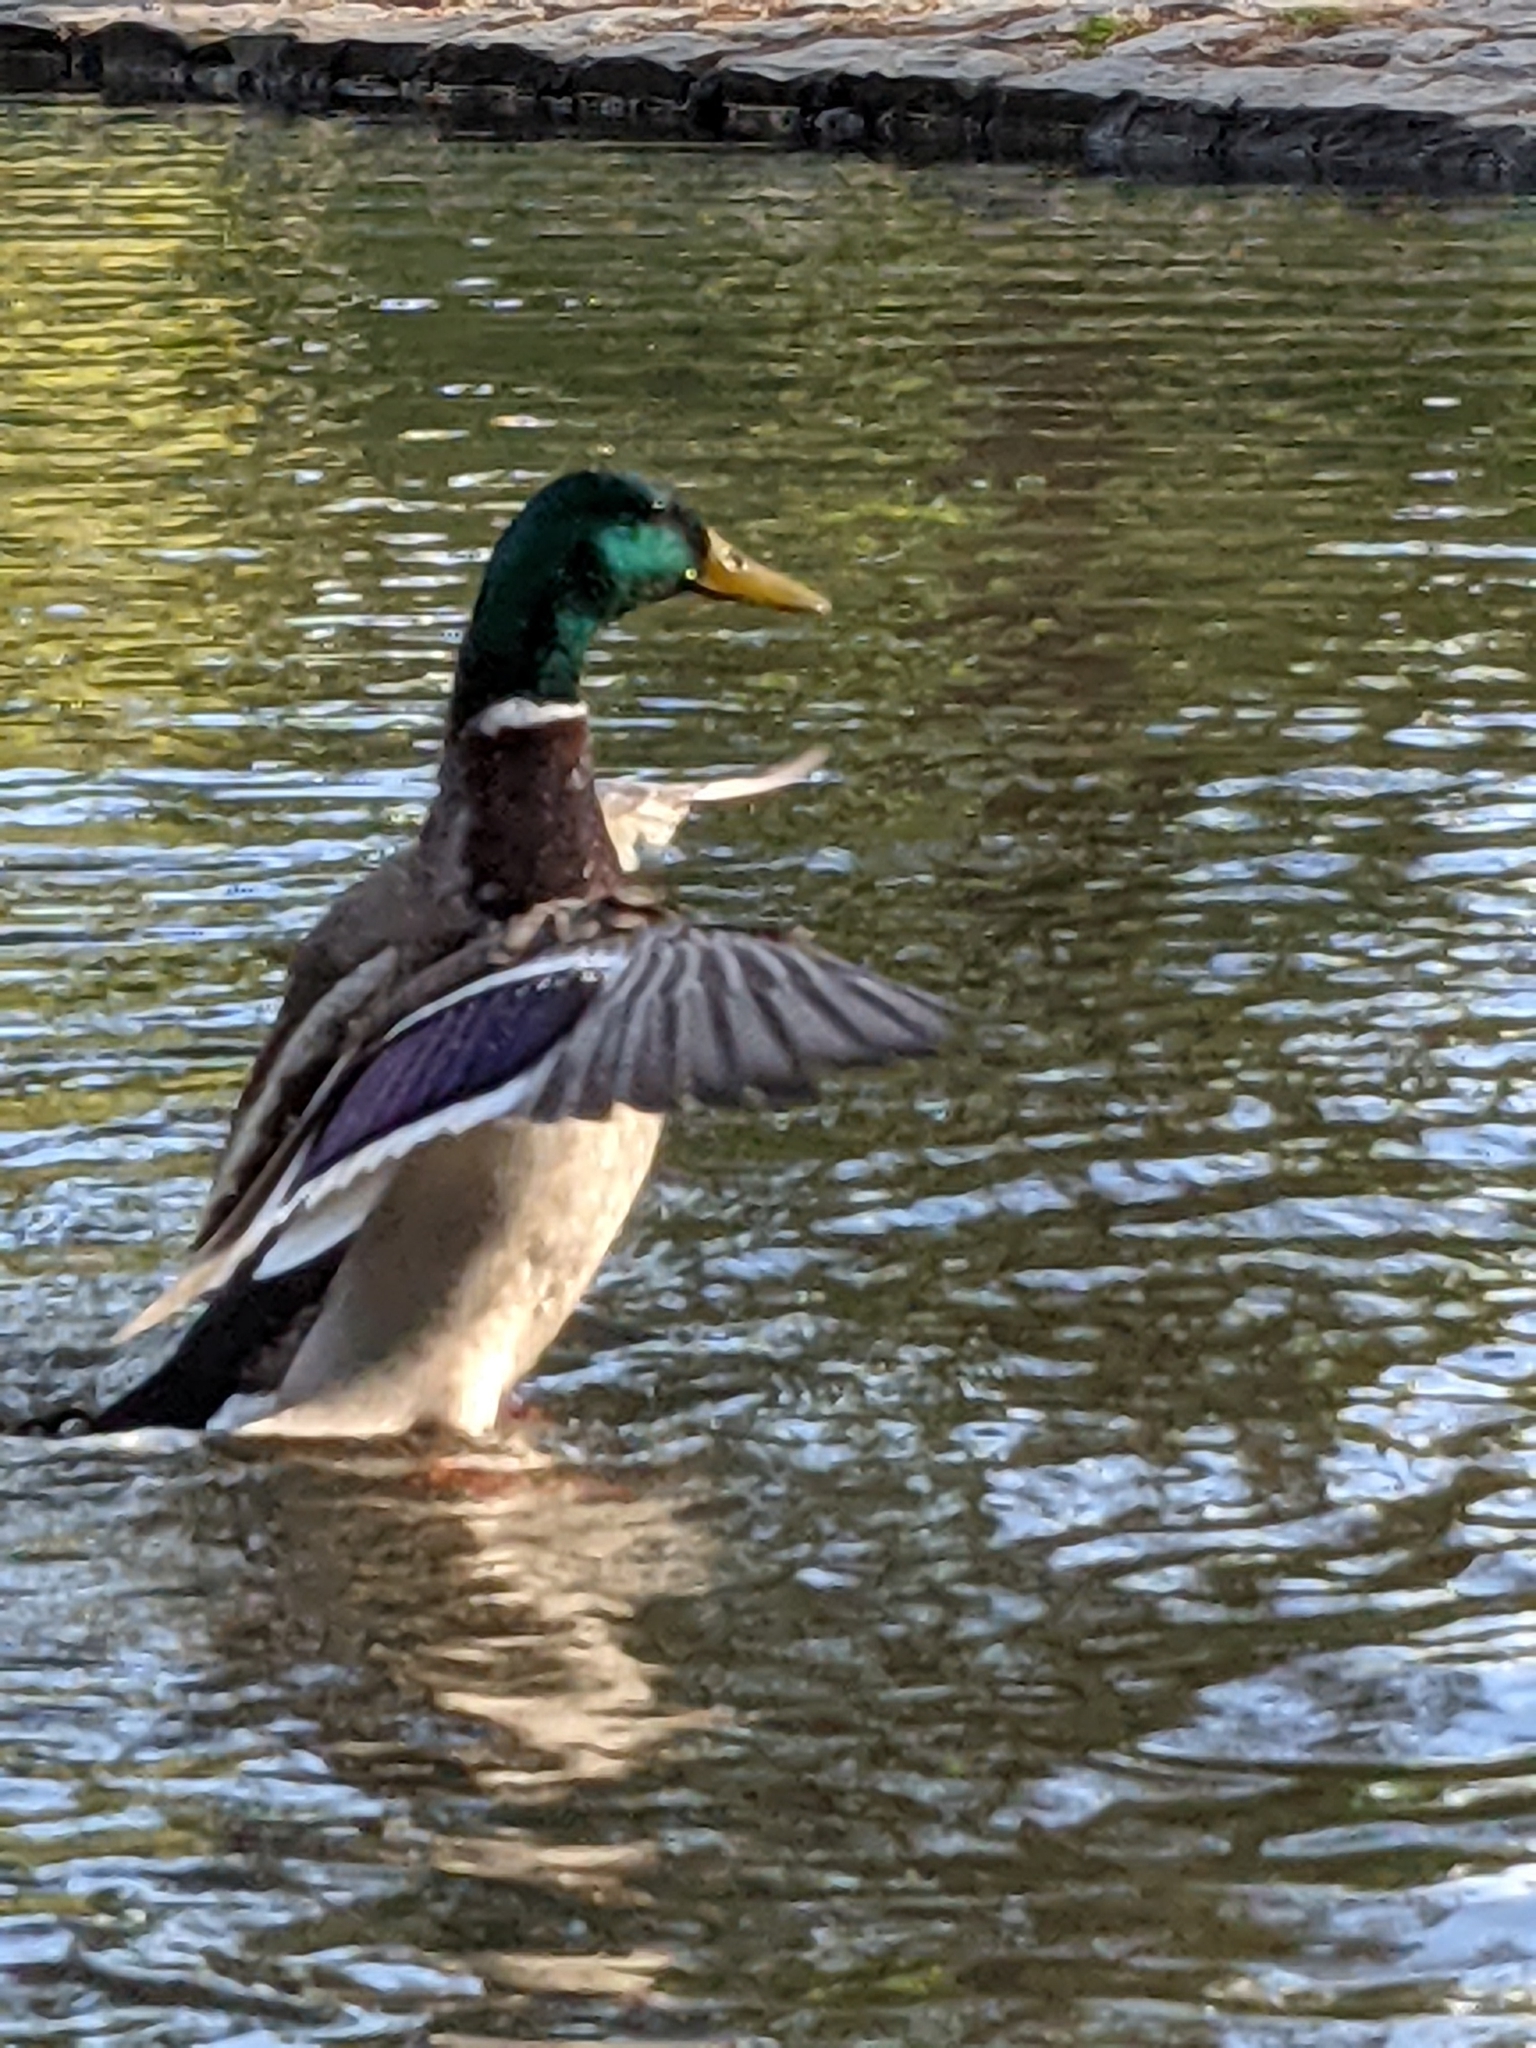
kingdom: Animalia
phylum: Chordata
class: Aves
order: Anseriformes
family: Anatidae
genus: Anas
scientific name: Anas platyrhynchos
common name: Mallard
